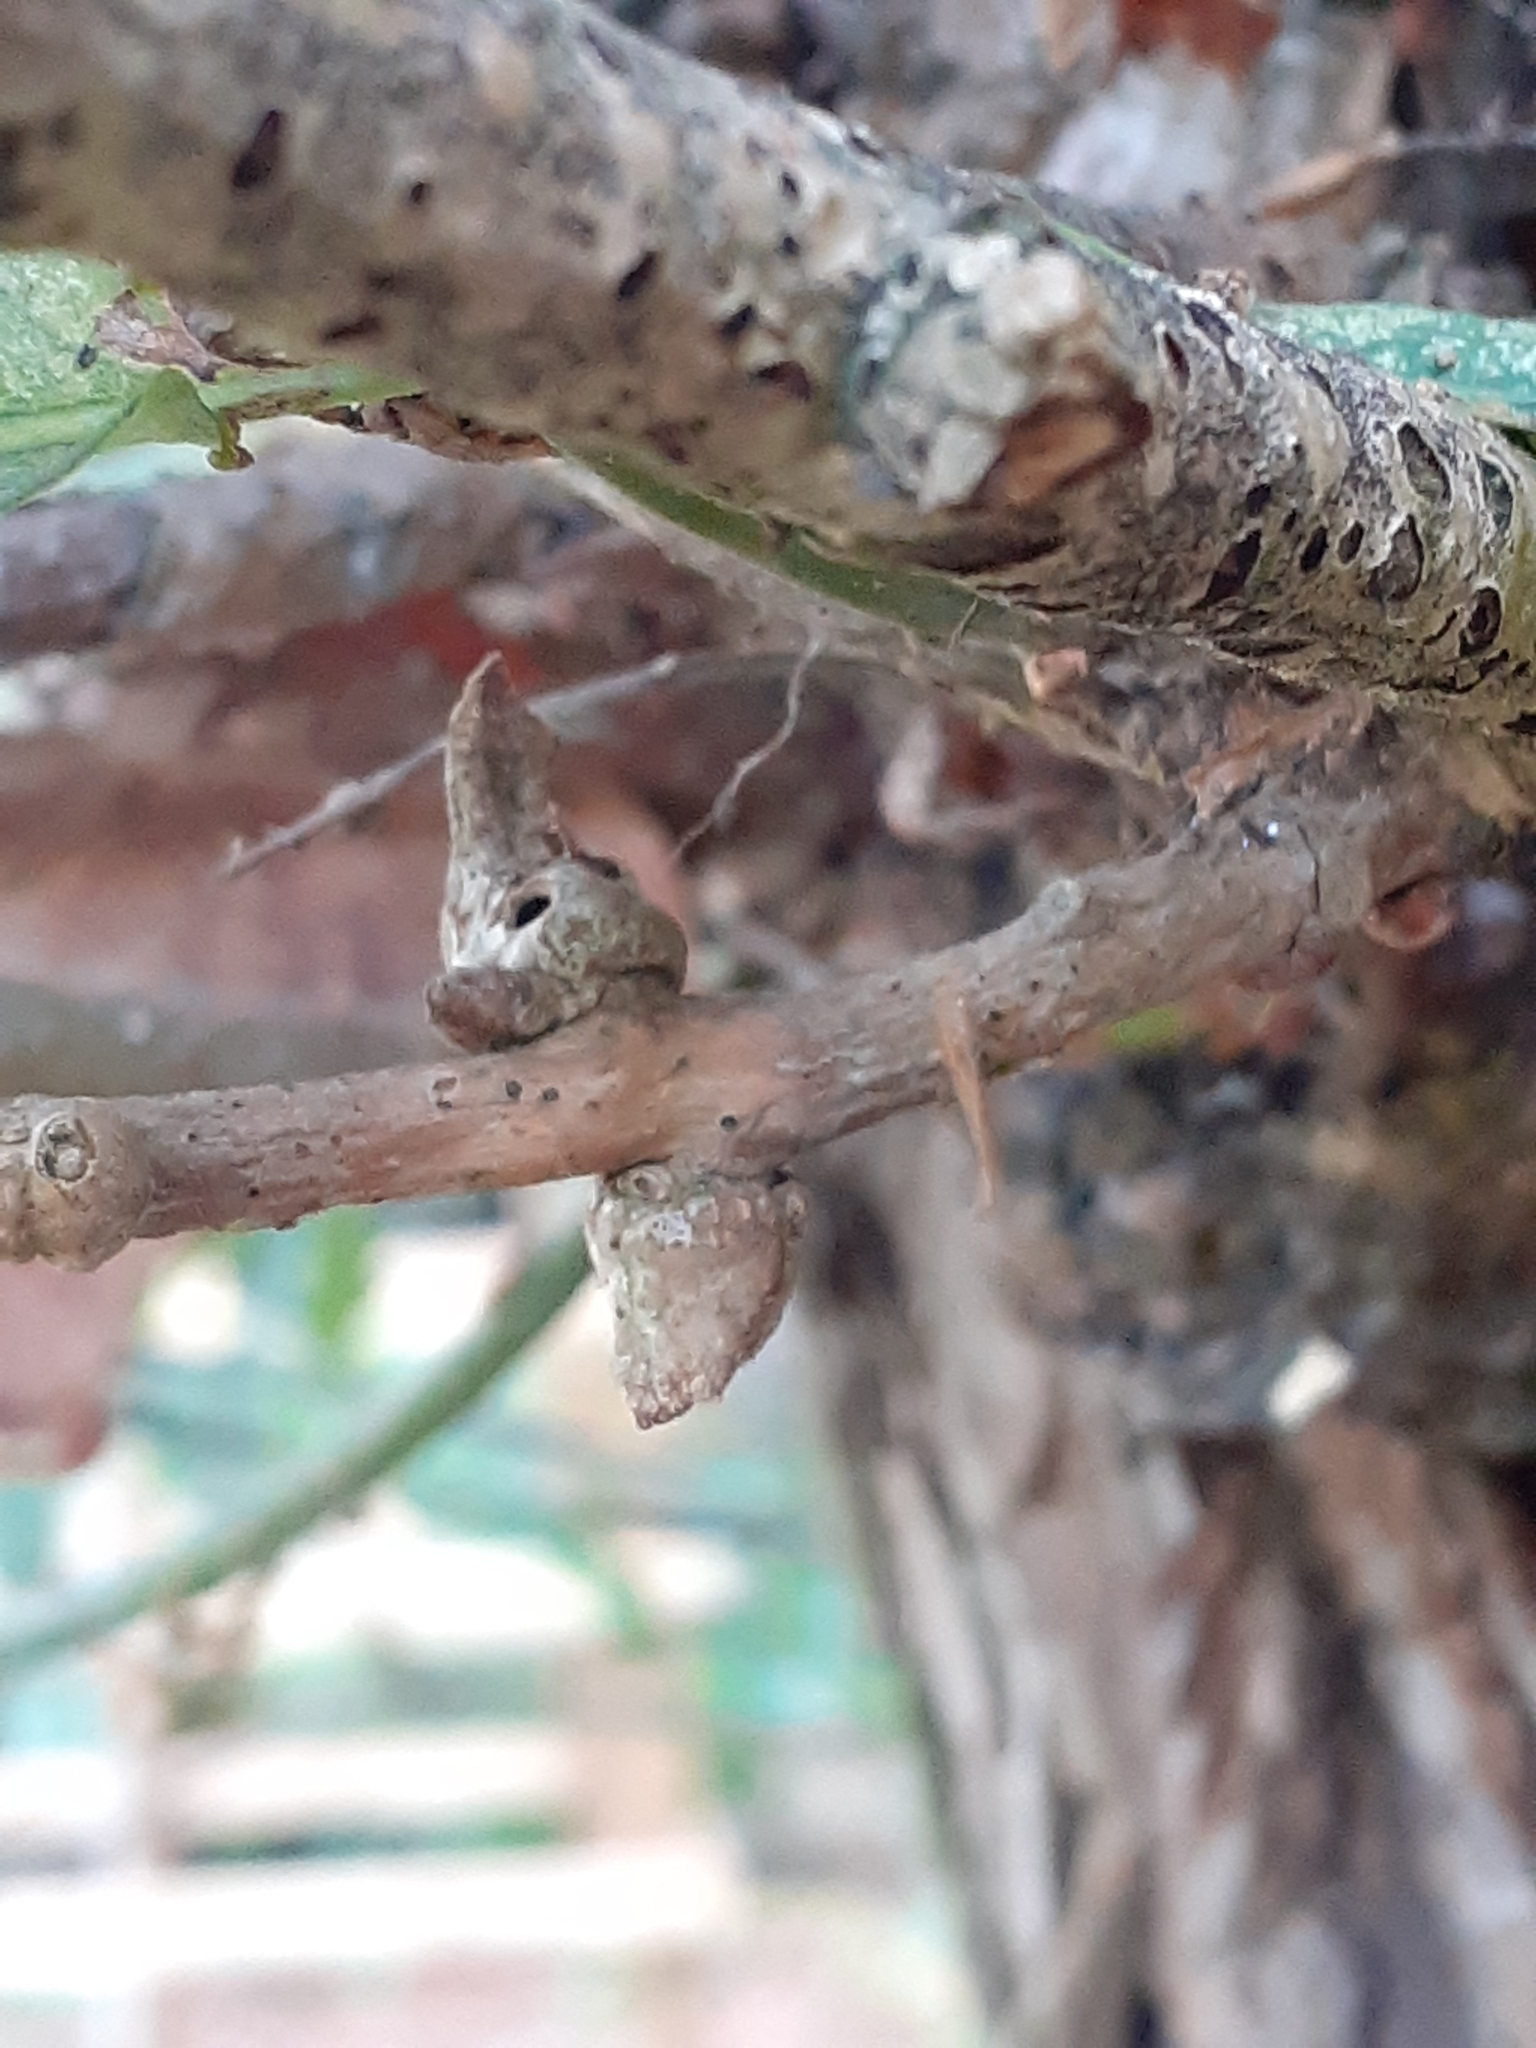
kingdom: Animalia
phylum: Arthropoda
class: Insecta
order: Hymenoptera
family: Cynipidae
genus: Andricus
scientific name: Andricus aries
